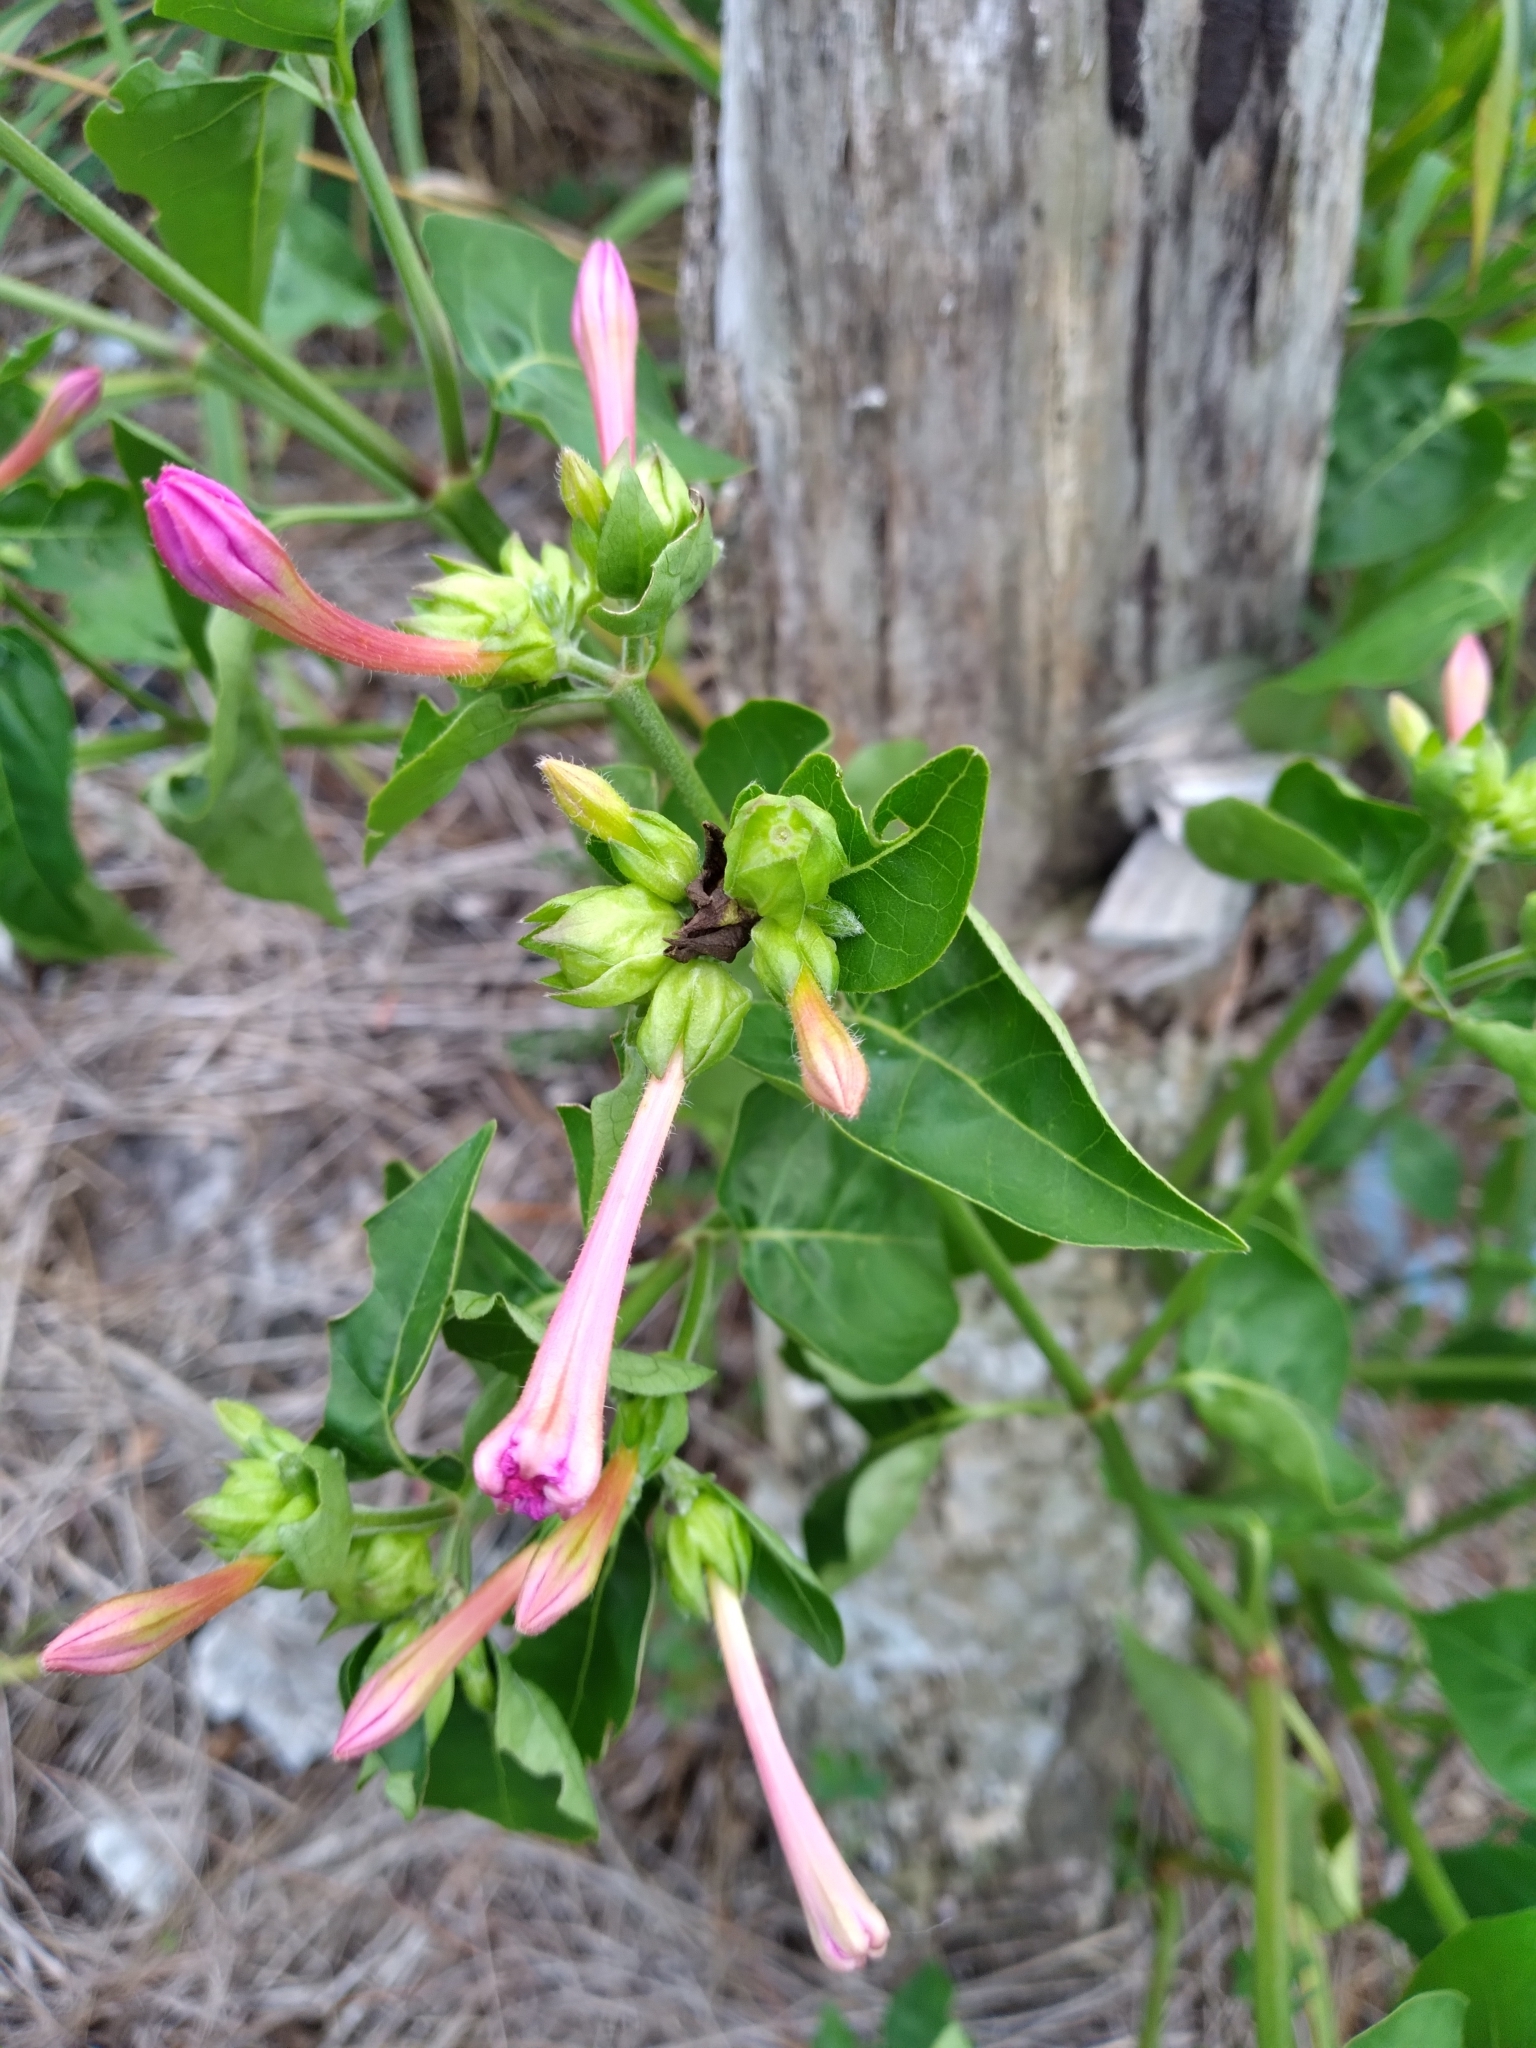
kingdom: Plantae
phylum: Tracheophyta
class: Magnoliopsida
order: Caryophyllales
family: Nyctaginaceae
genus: Mirabilis
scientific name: Mirabilis jalapa
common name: Marvel-of-peru
